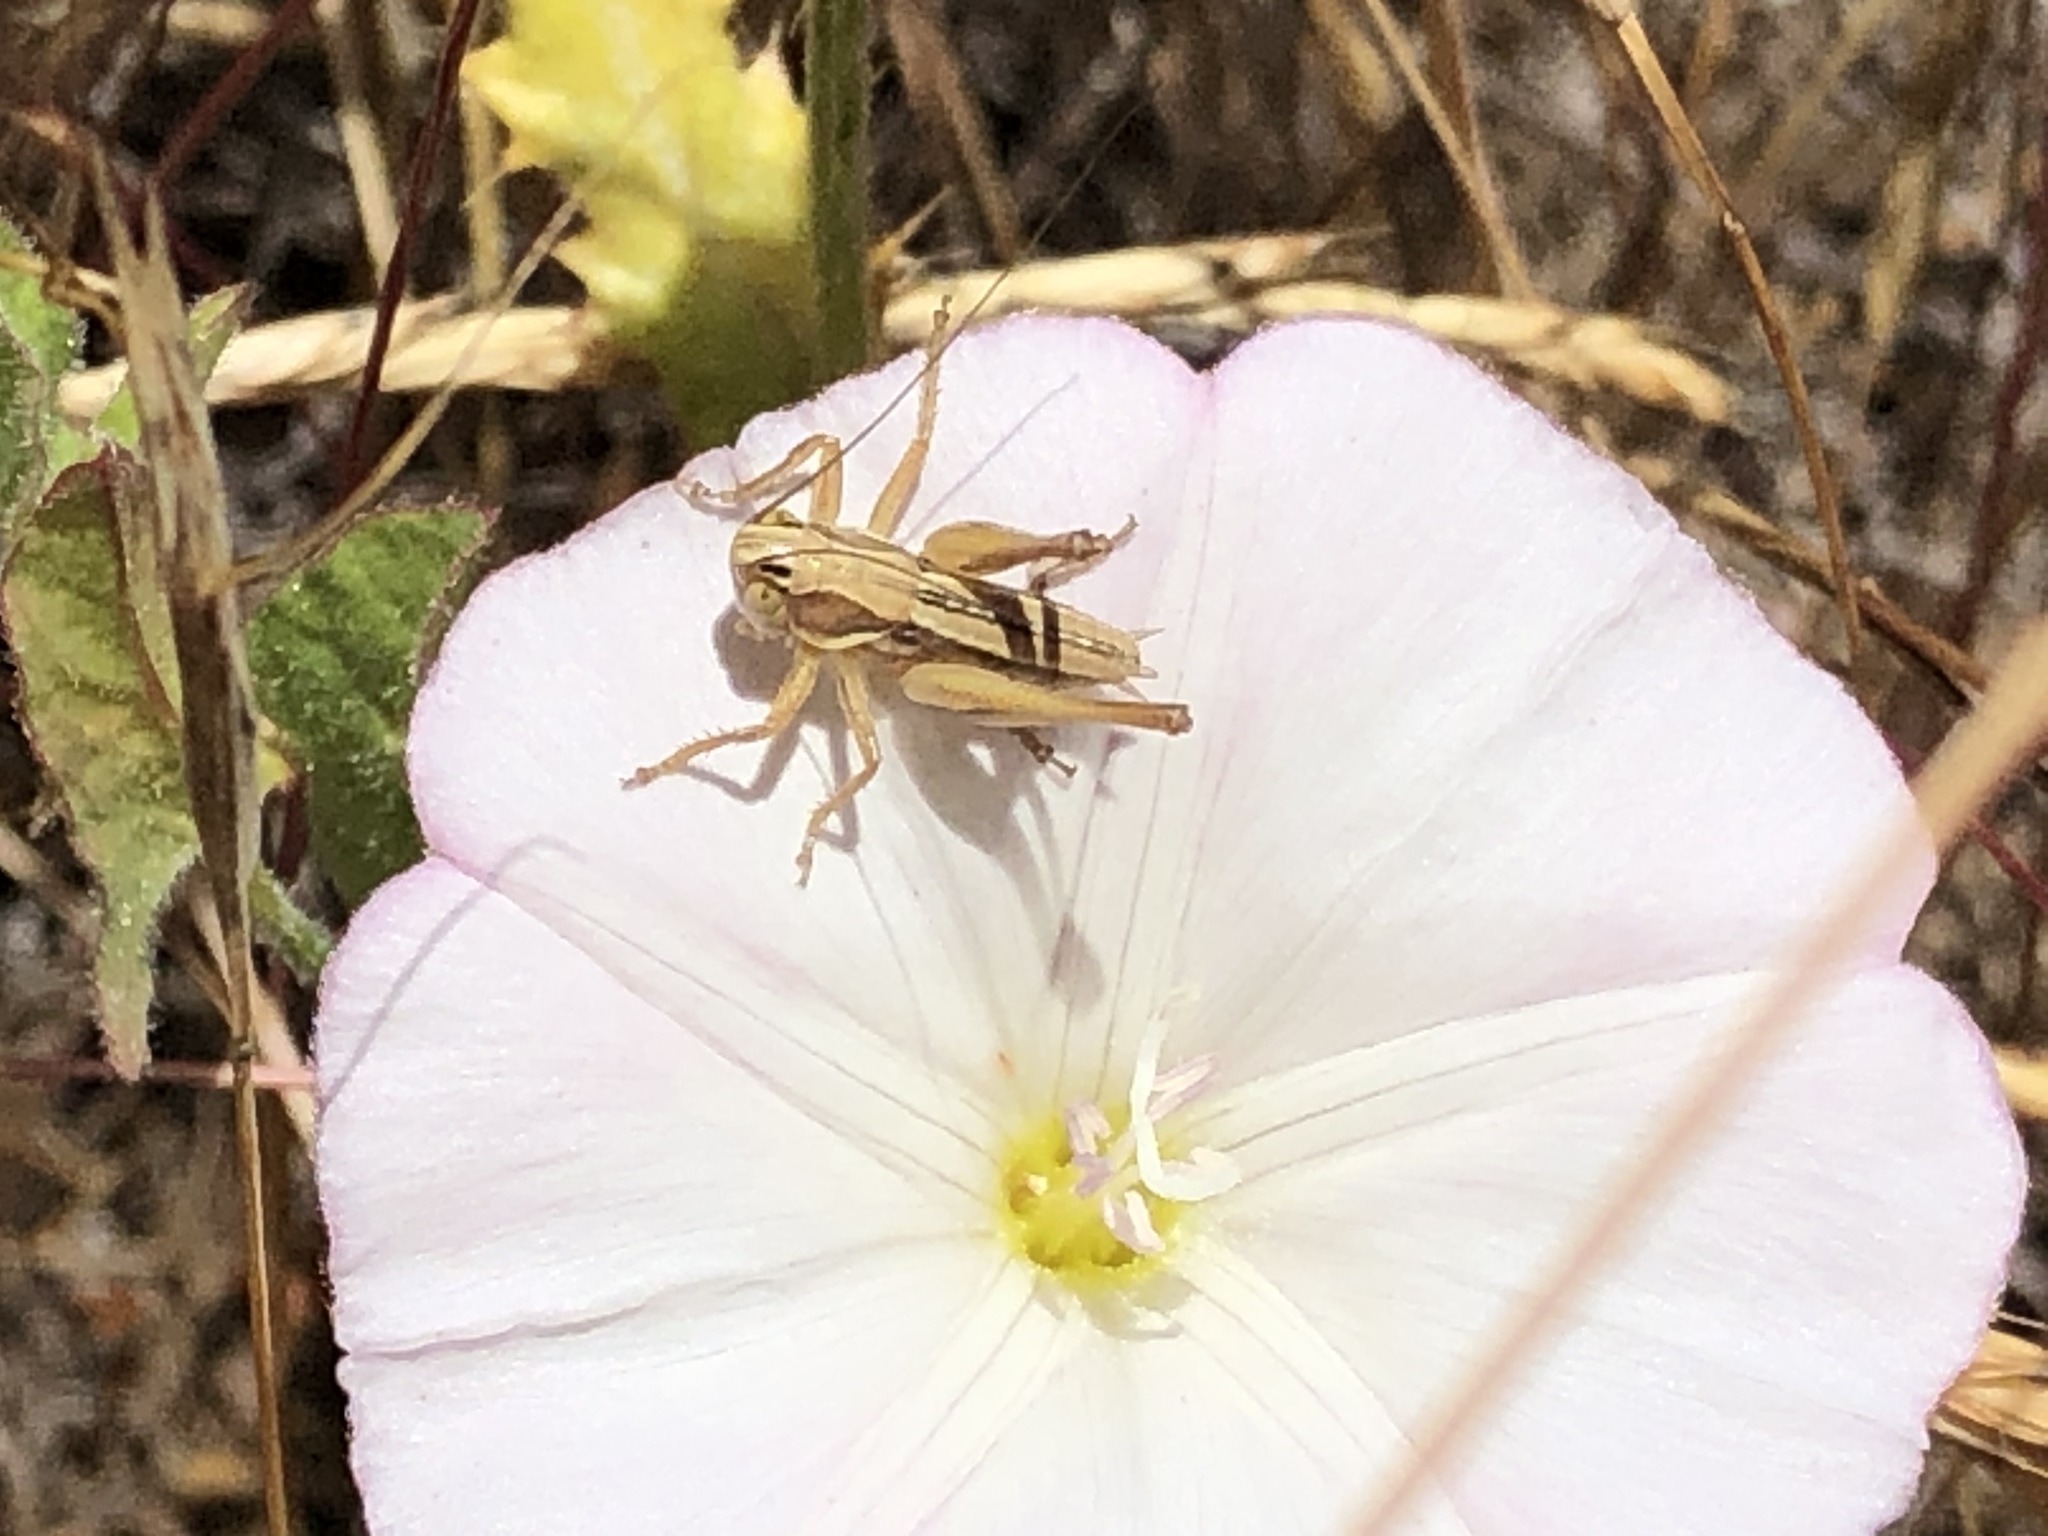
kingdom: Animalia
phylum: Arthropoda
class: Insecta
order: Orthoptera
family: Tettigoniidae
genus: Tessellana
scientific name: Tessellana tessellata
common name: Grasshopper
